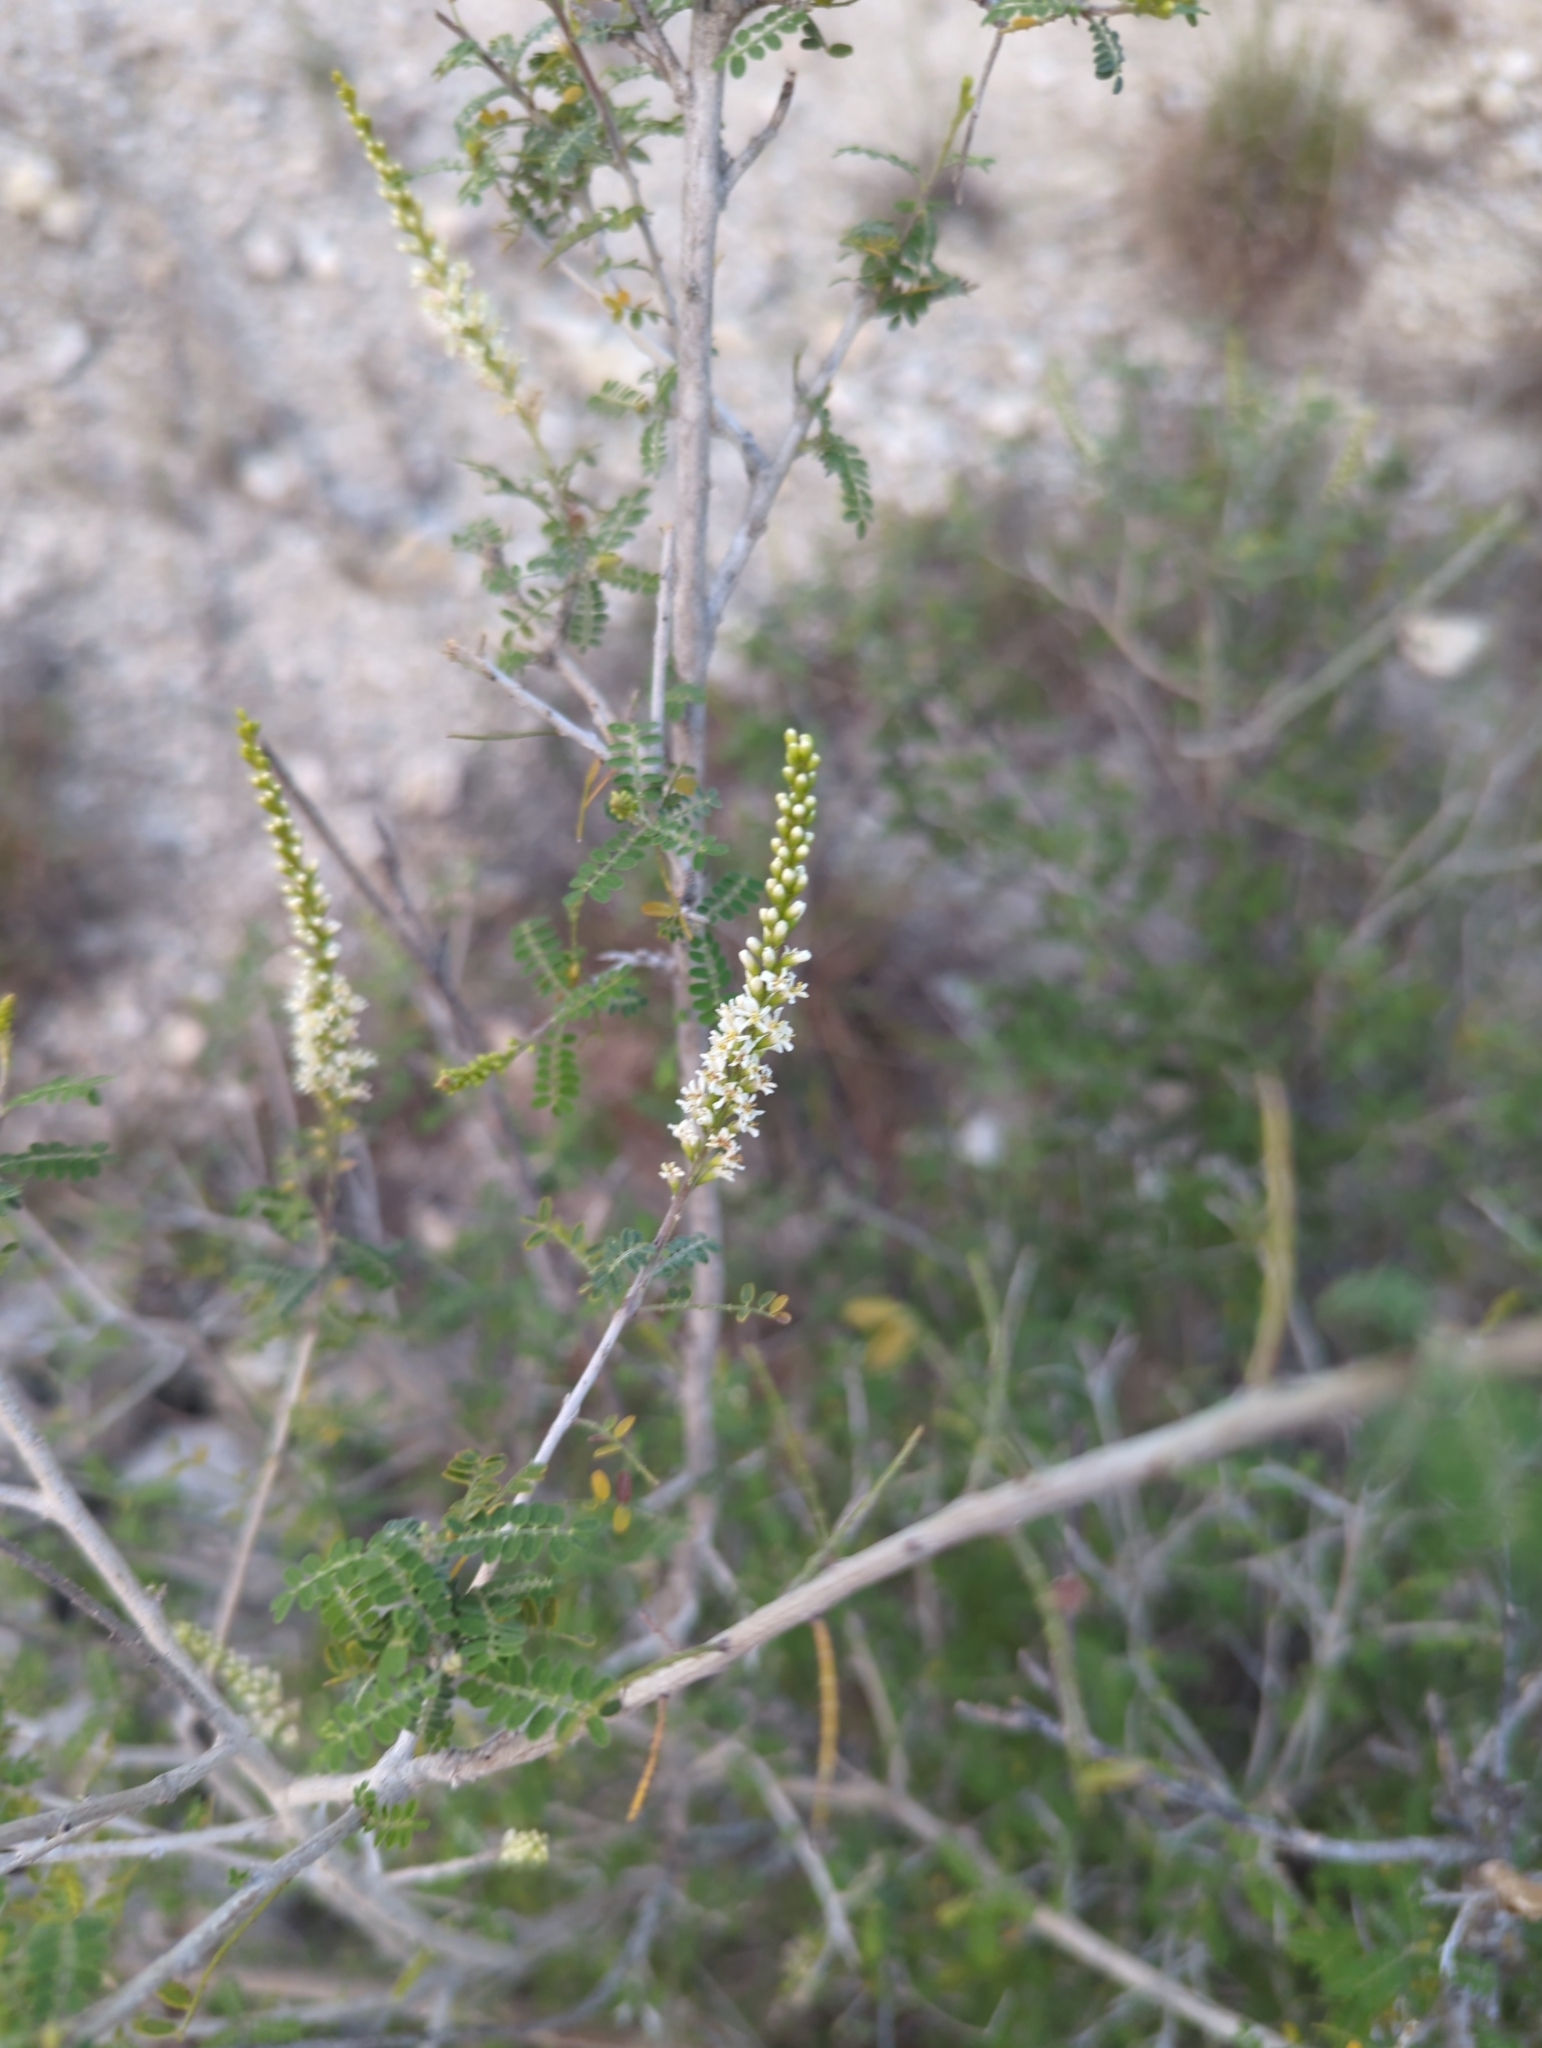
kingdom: Plantae
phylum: Tracheophyta
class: Magnoliopsida
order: Fabales
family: Fabaceae
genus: Eysenhardtia
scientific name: Eysenhardtia texana
